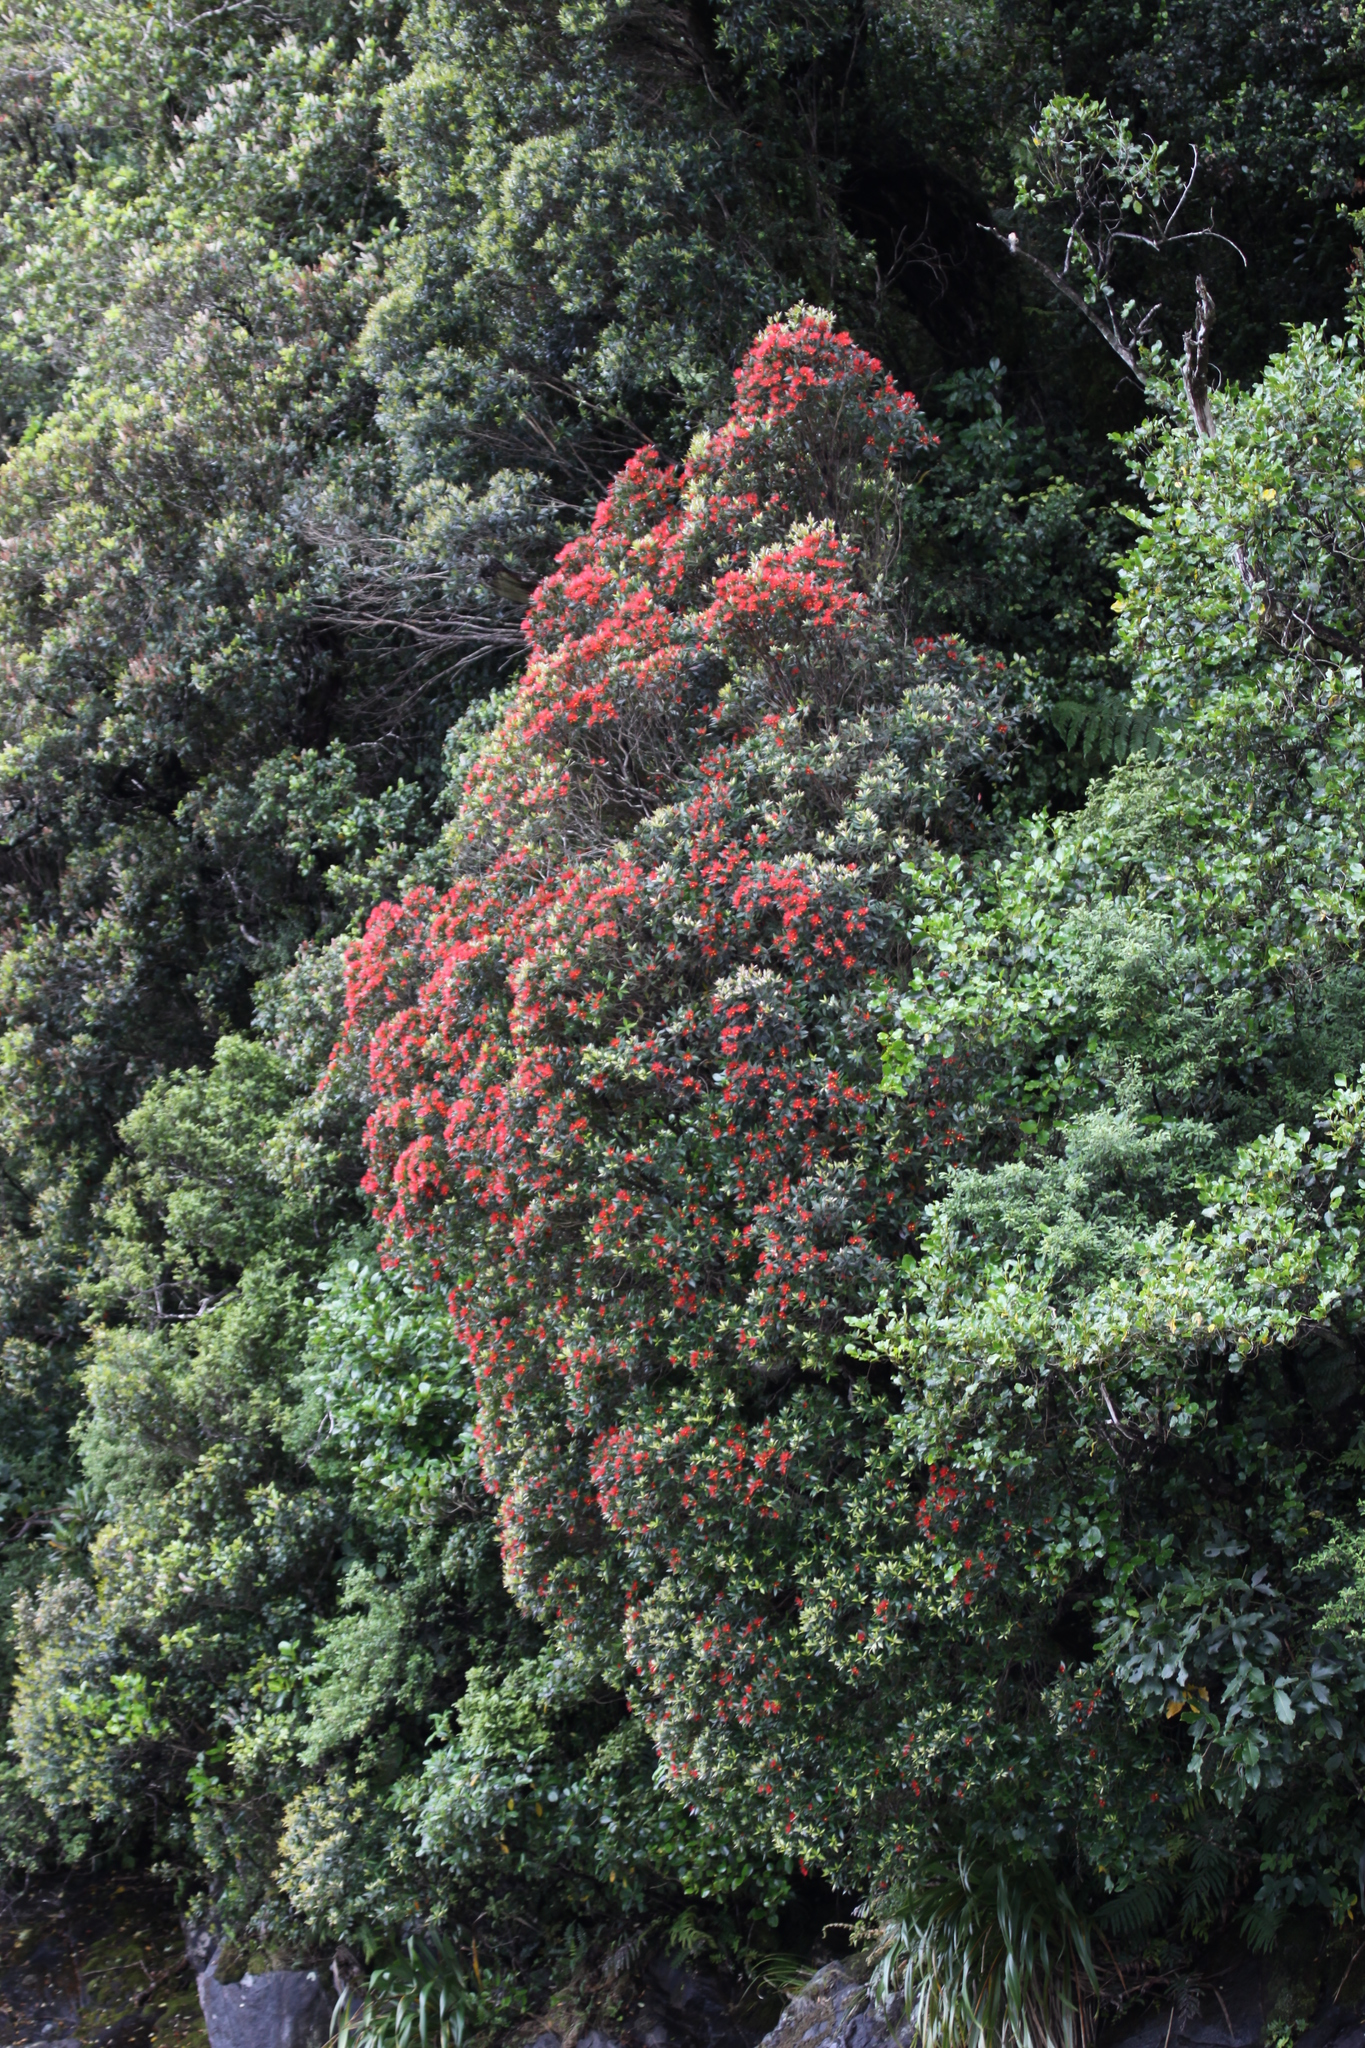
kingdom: Plantae
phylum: Tracheophyta
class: Magnoliopsida
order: Myrtales
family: Myrtaceae
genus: Metrosideros
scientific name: Metrosideros umbellata
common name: Southern rata
